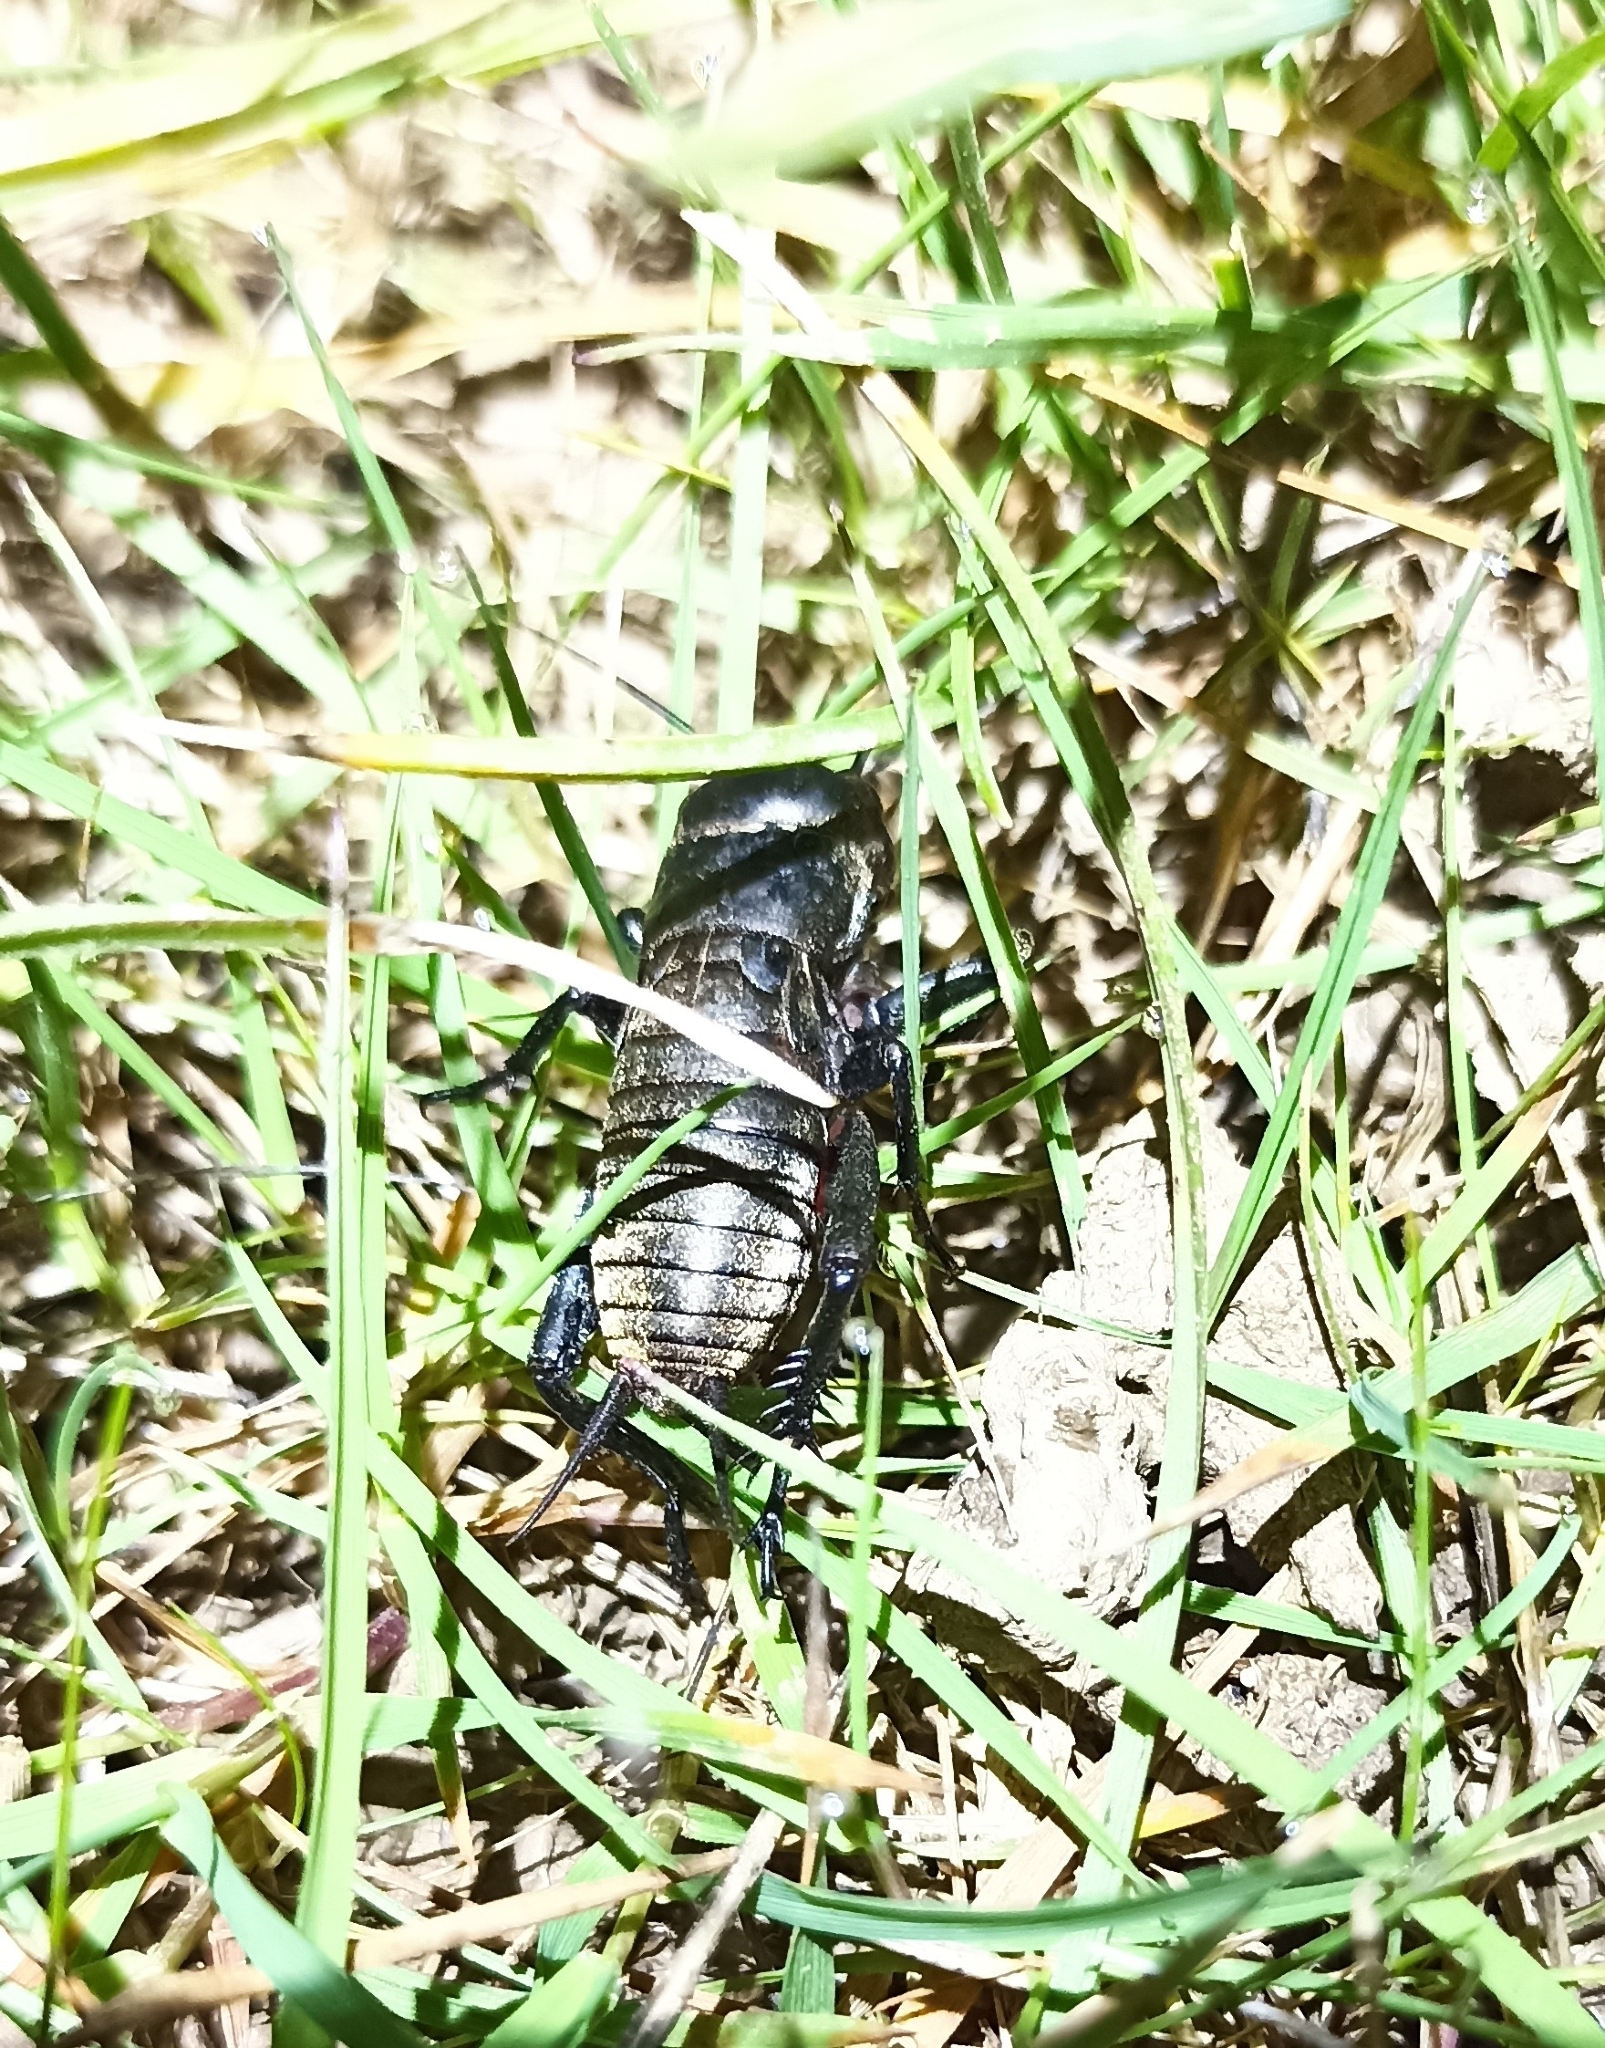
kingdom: Animalia
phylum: Arthropoda
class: Insecta
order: Orthoptera
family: Gryllidae
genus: Gryllus
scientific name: Gryllus campestris
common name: Field cricket
